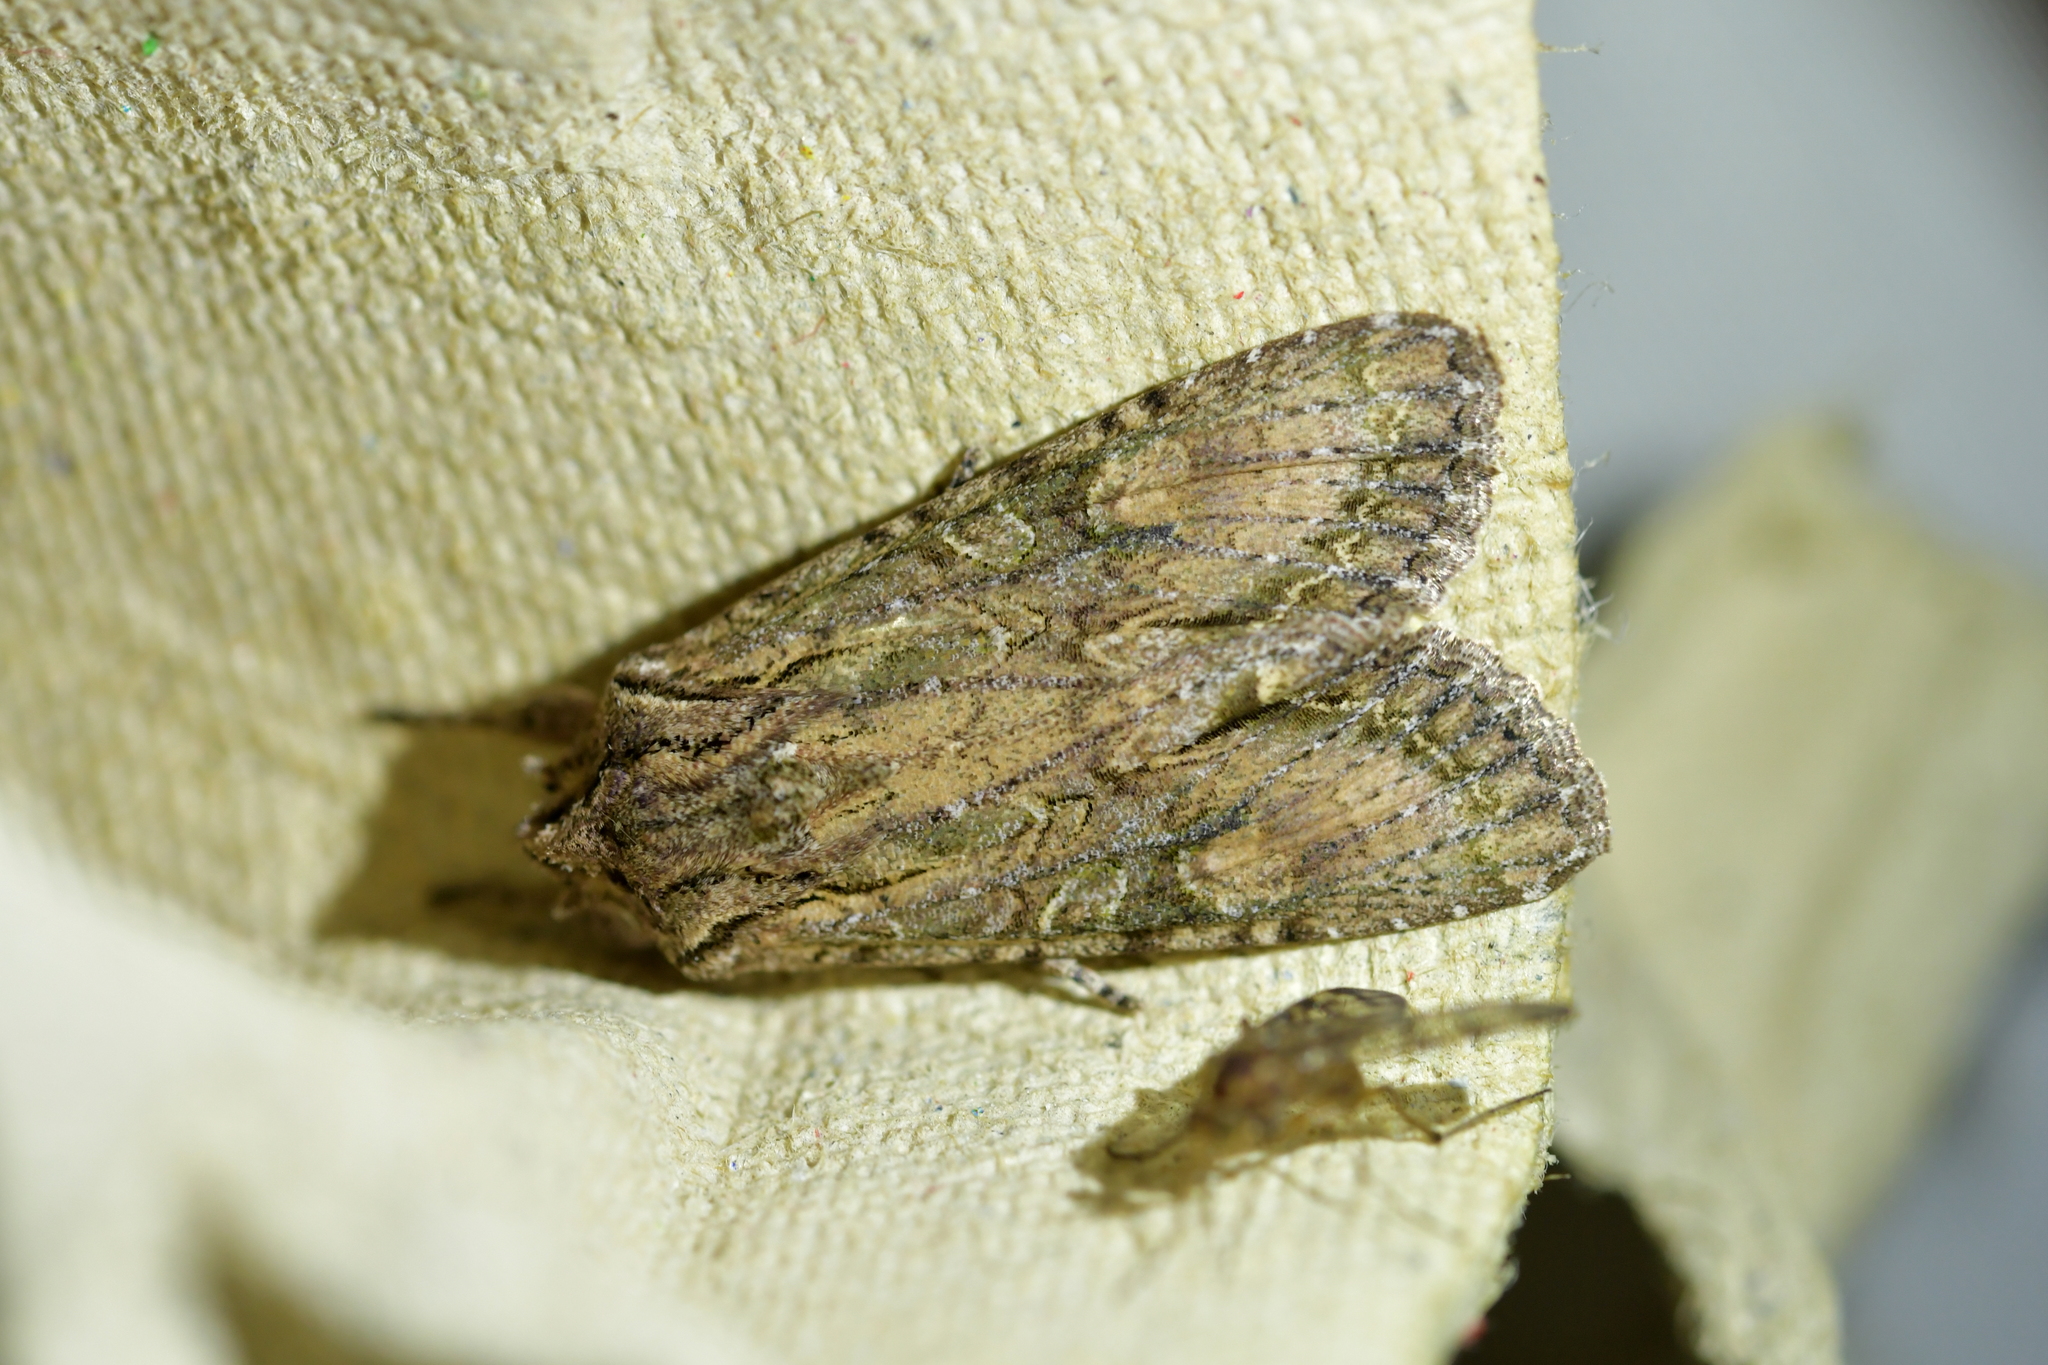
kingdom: Animalia
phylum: Arthropoda
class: Insecta
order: Lepidoptera
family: Noctuidae
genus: Ichneutica
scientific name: Ichneutica mutans
